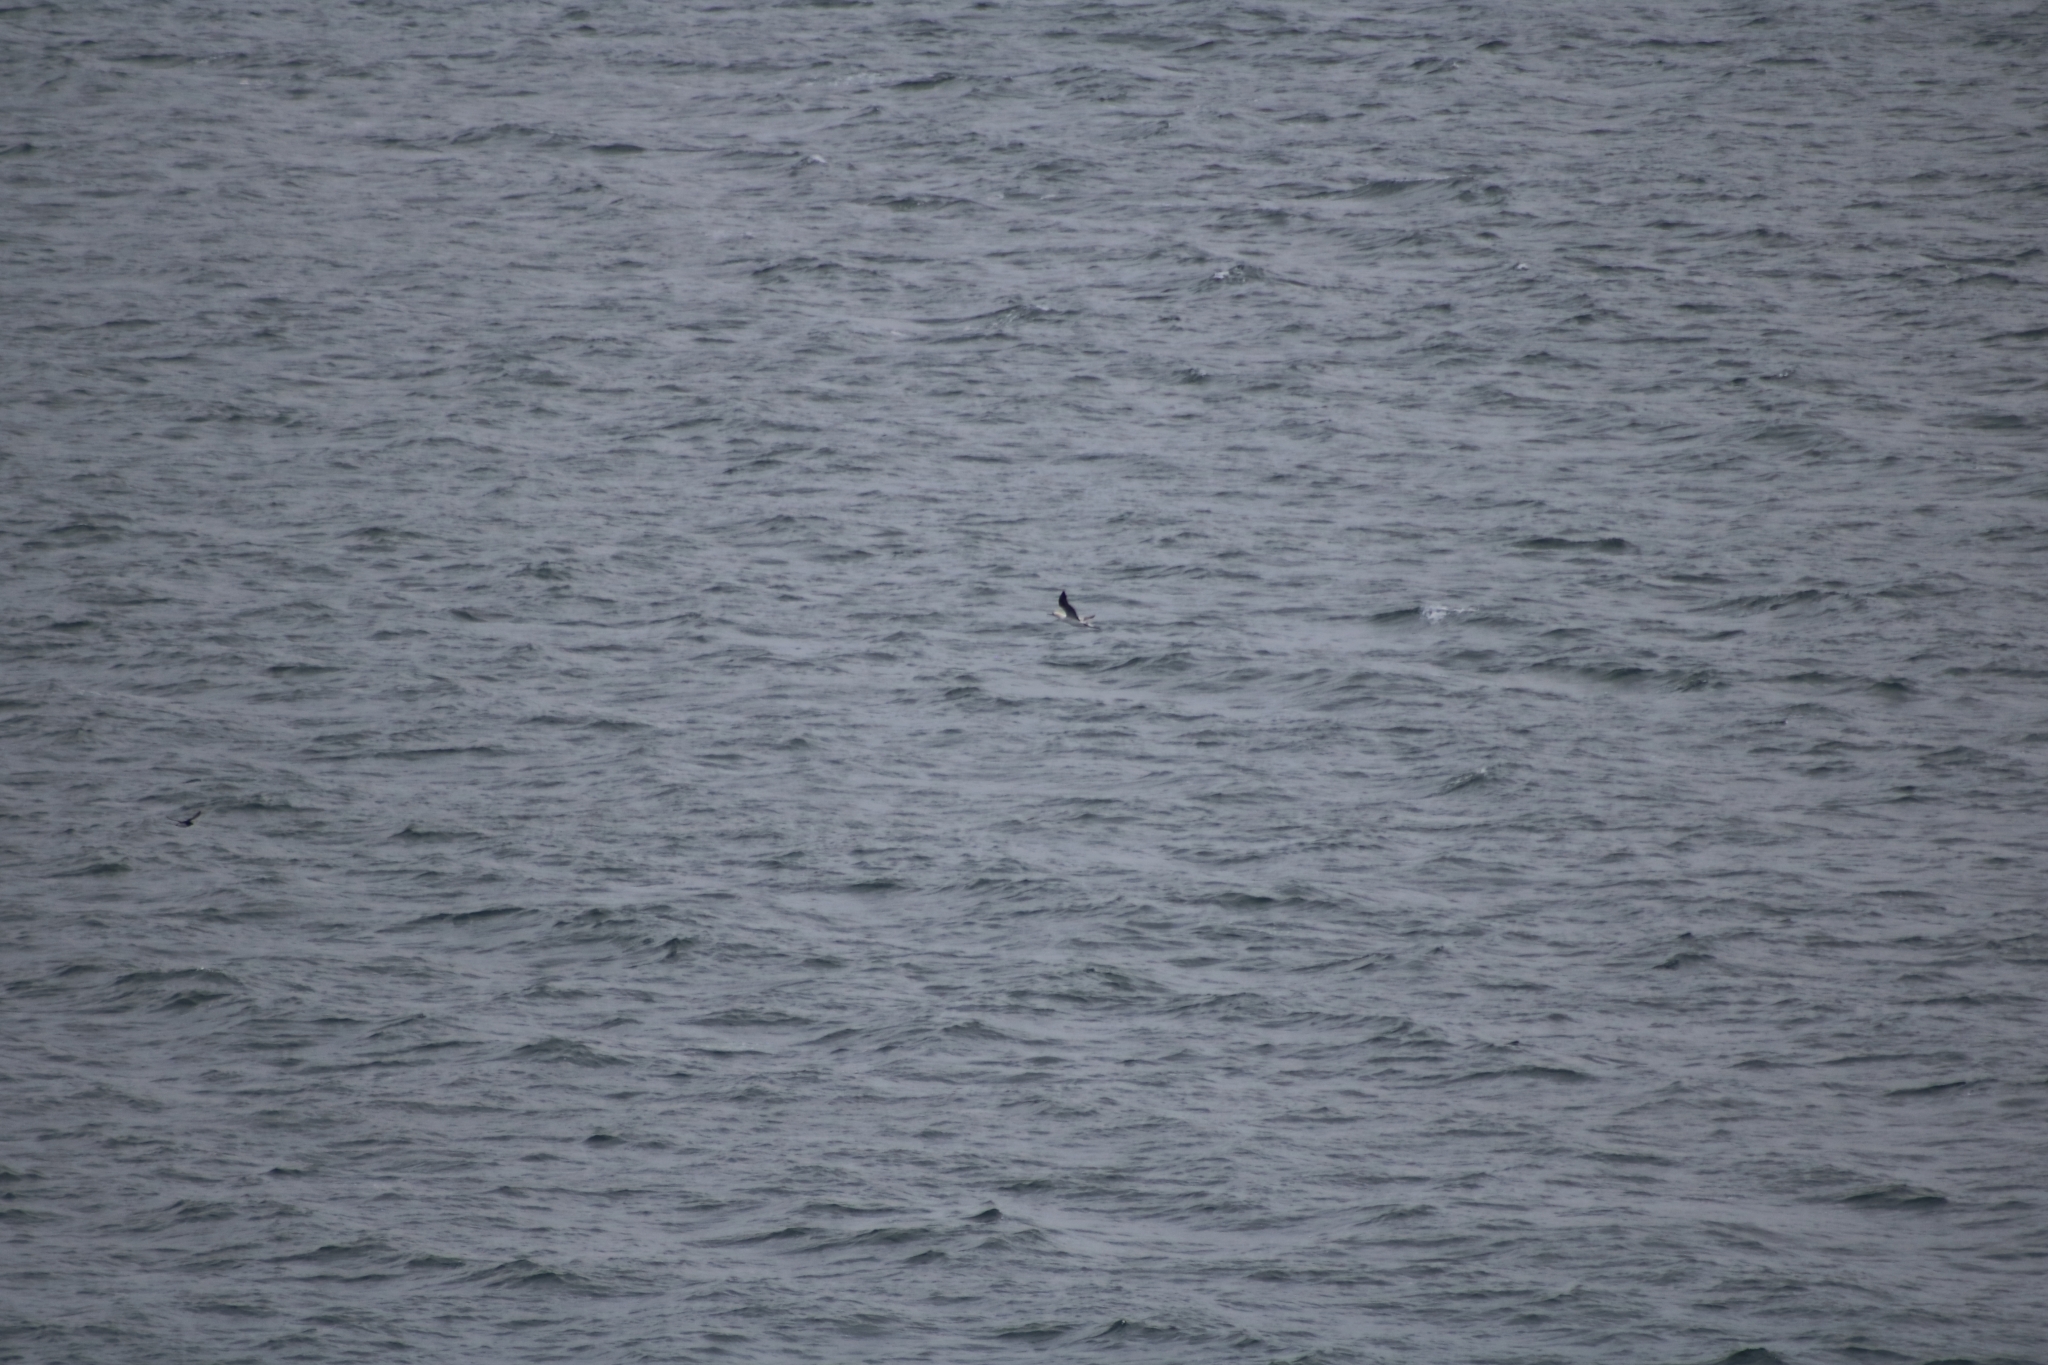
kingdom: Animalia
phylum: Chordata
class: Aves
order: Suliformes
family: Sulidae
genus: Morus
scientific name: Morus bassanus
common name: Northern gannet
